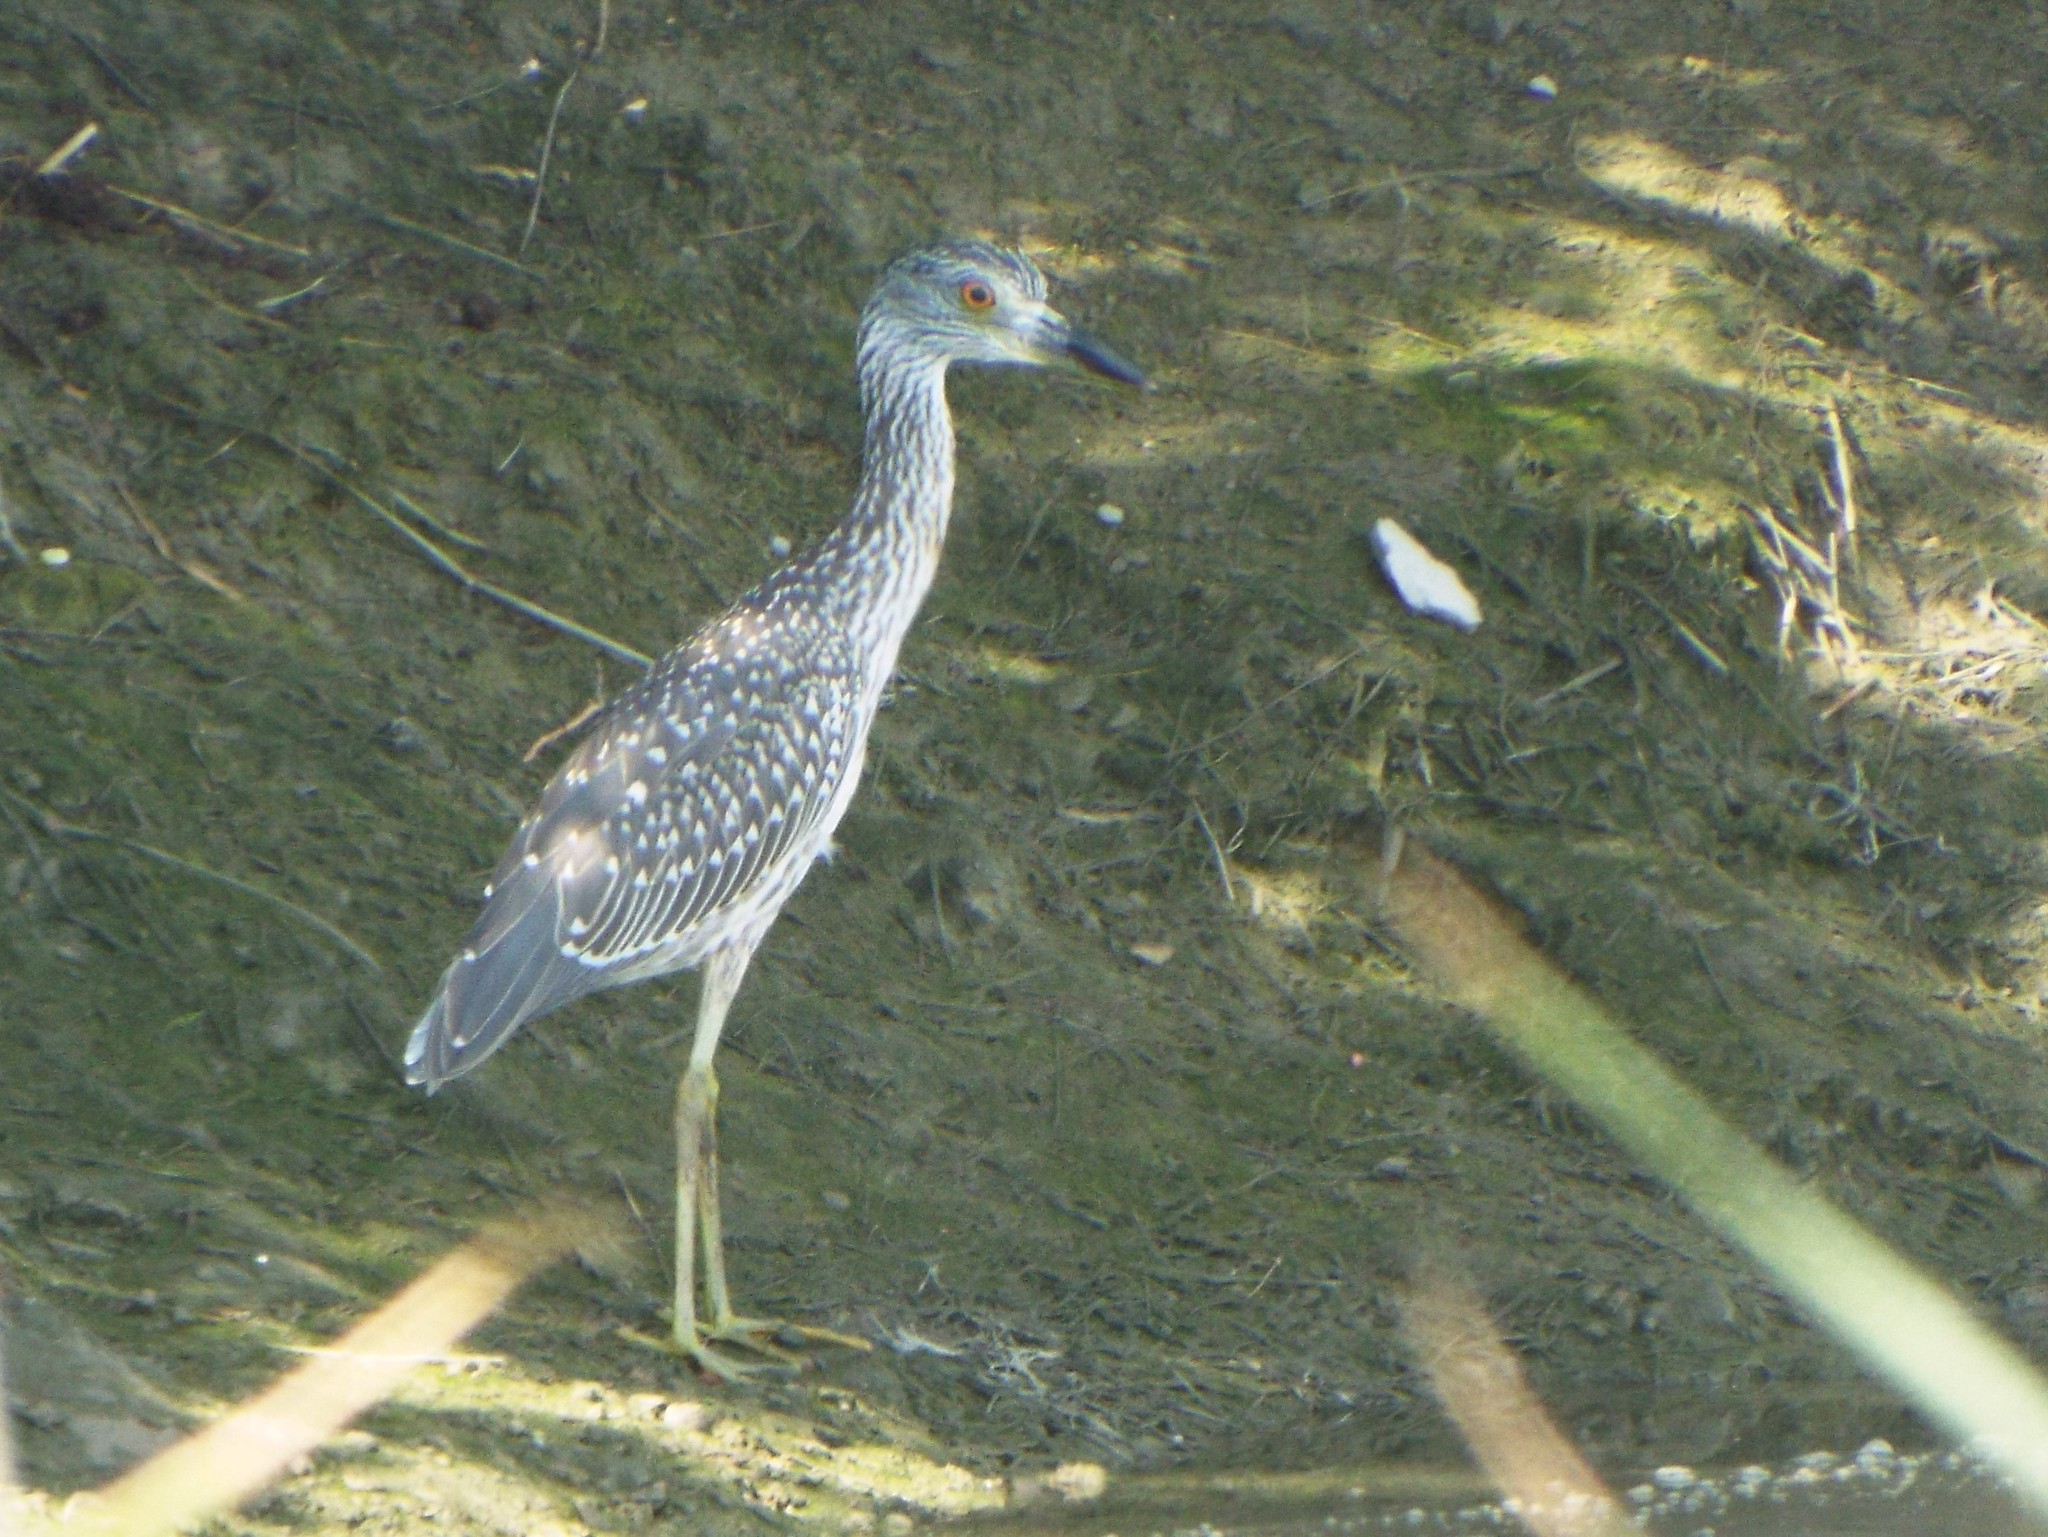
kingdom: Animalia
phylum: Chordata
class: Aves
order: Pelecaniformes
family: Ardeidae
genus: Nyctanassa
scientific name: Nyctanassa violacea
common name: Yellow-crowned night heron
